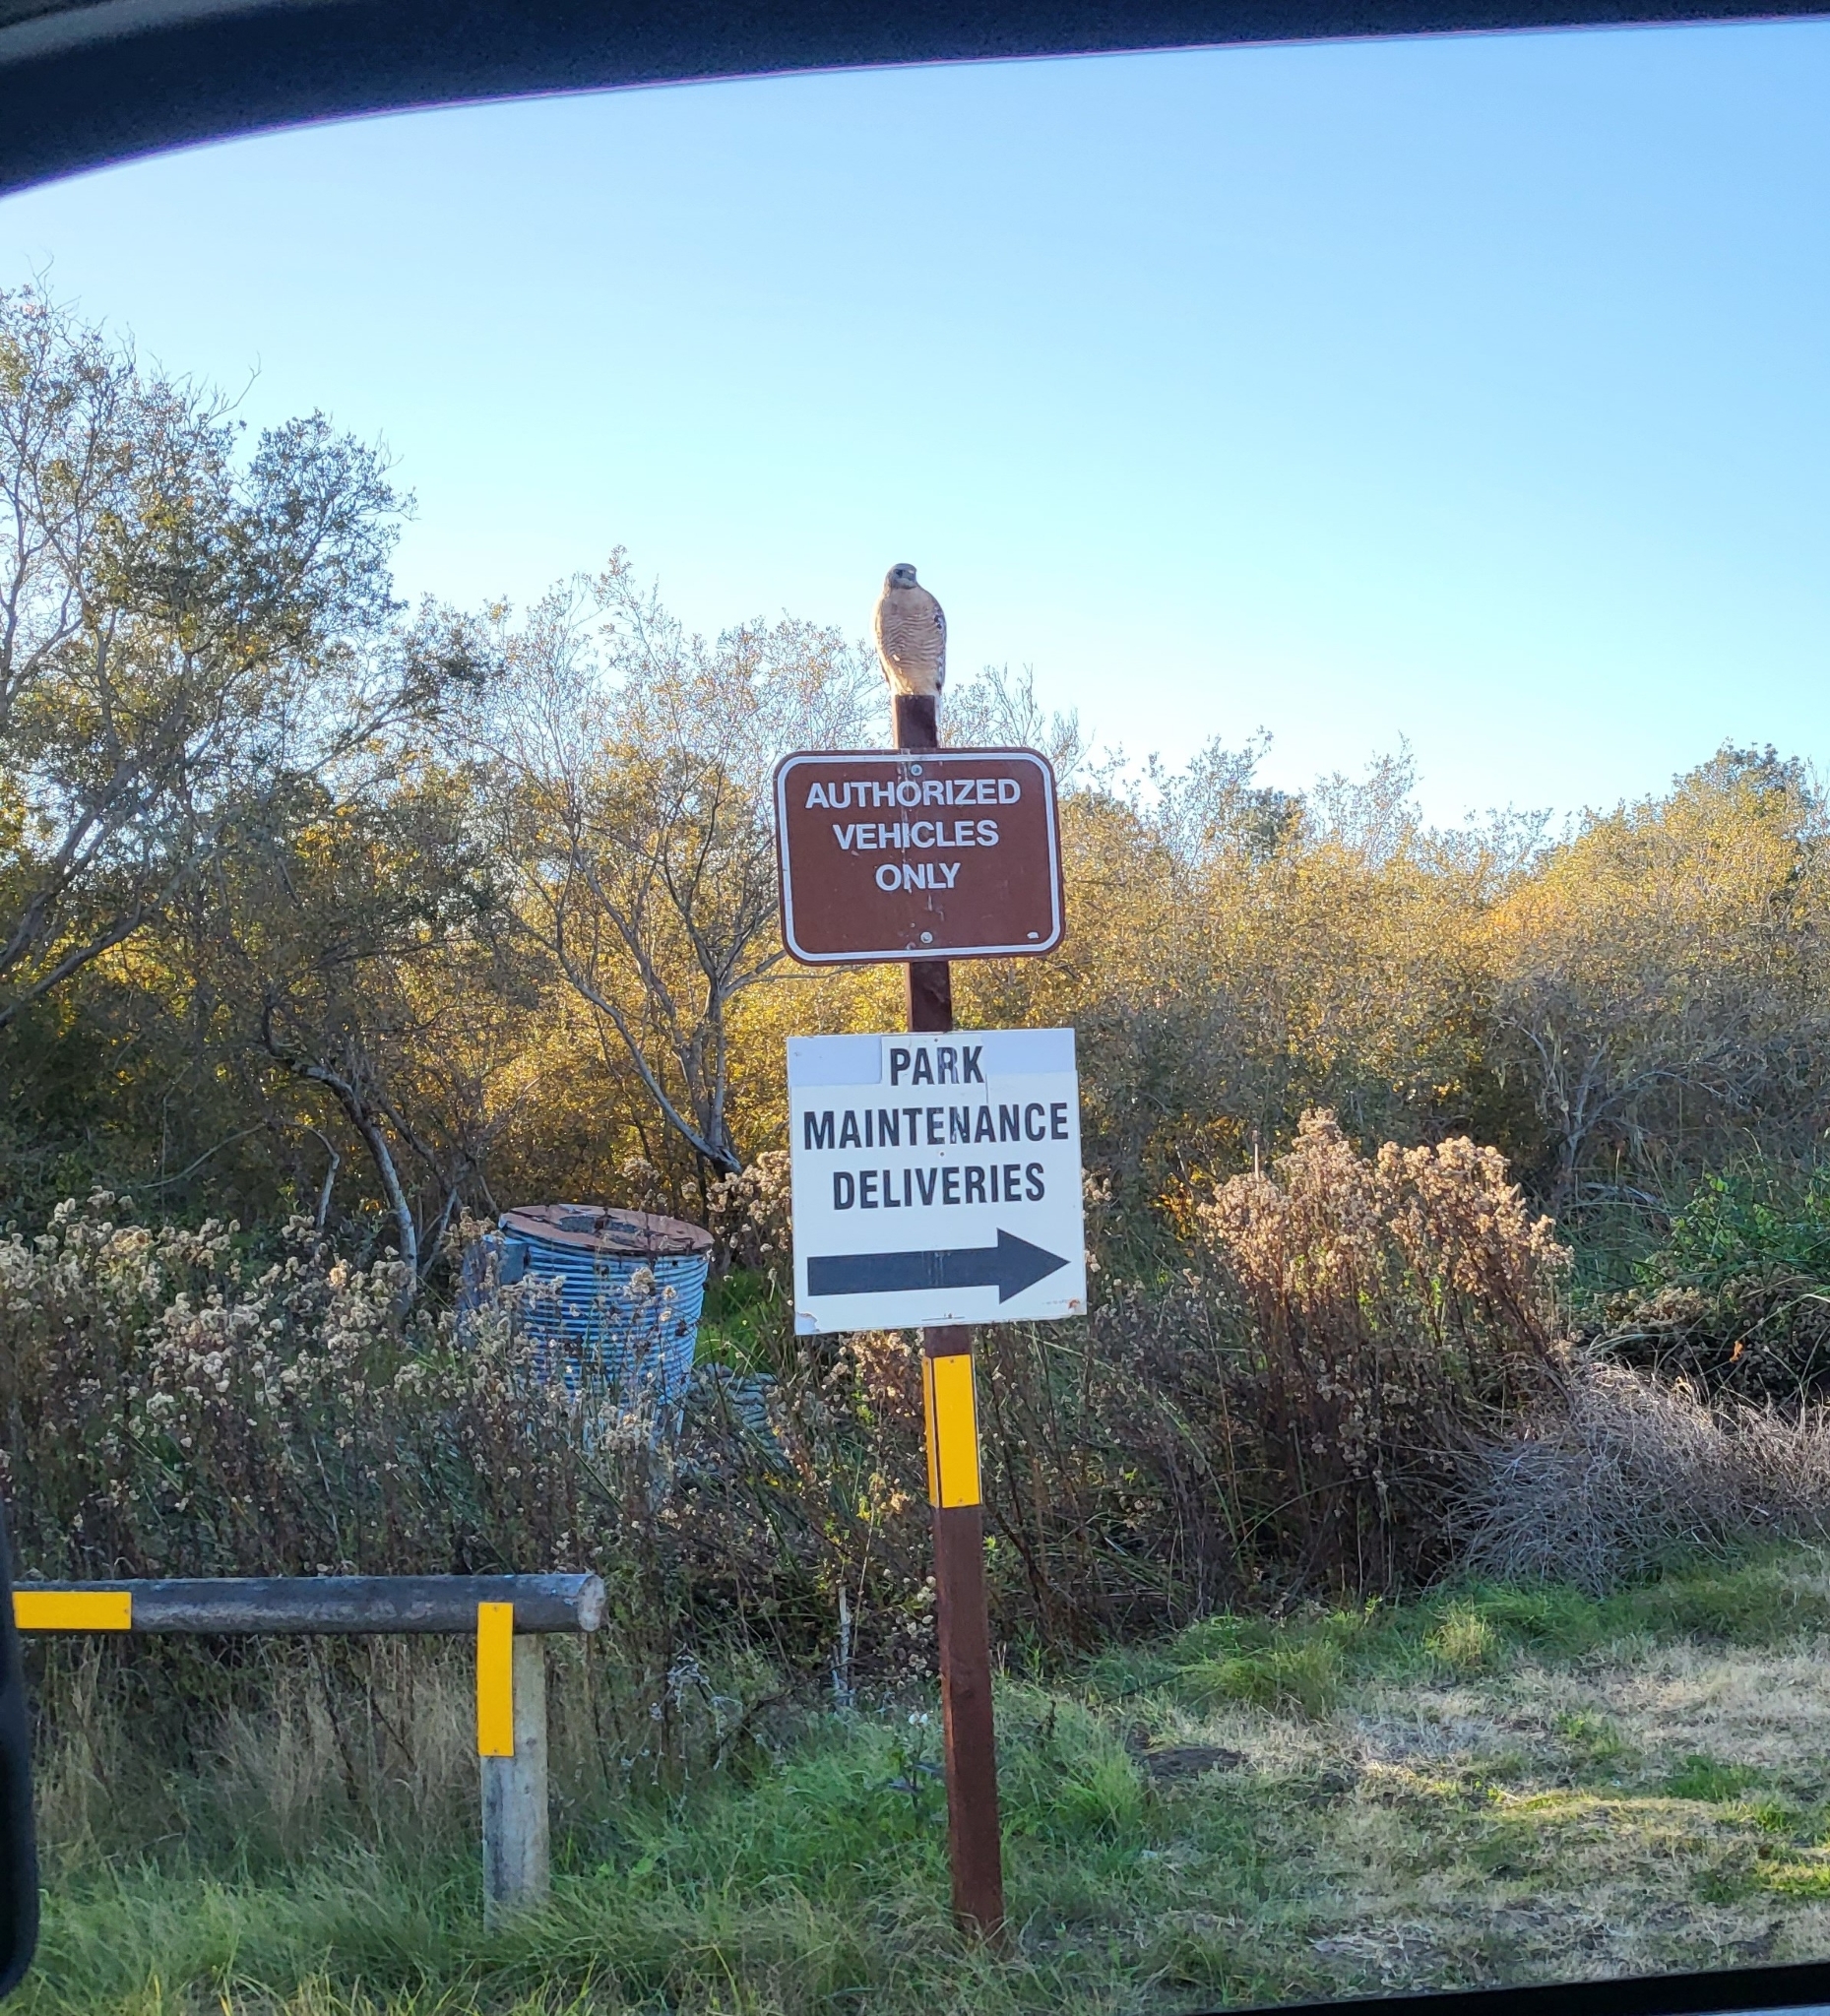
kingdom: Animalia
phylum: Chordata
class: Aves
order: Accipitriformes
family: Accipitridae
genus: Buteo
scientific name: Buteo lineatus
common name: Red-shouldered hawk
